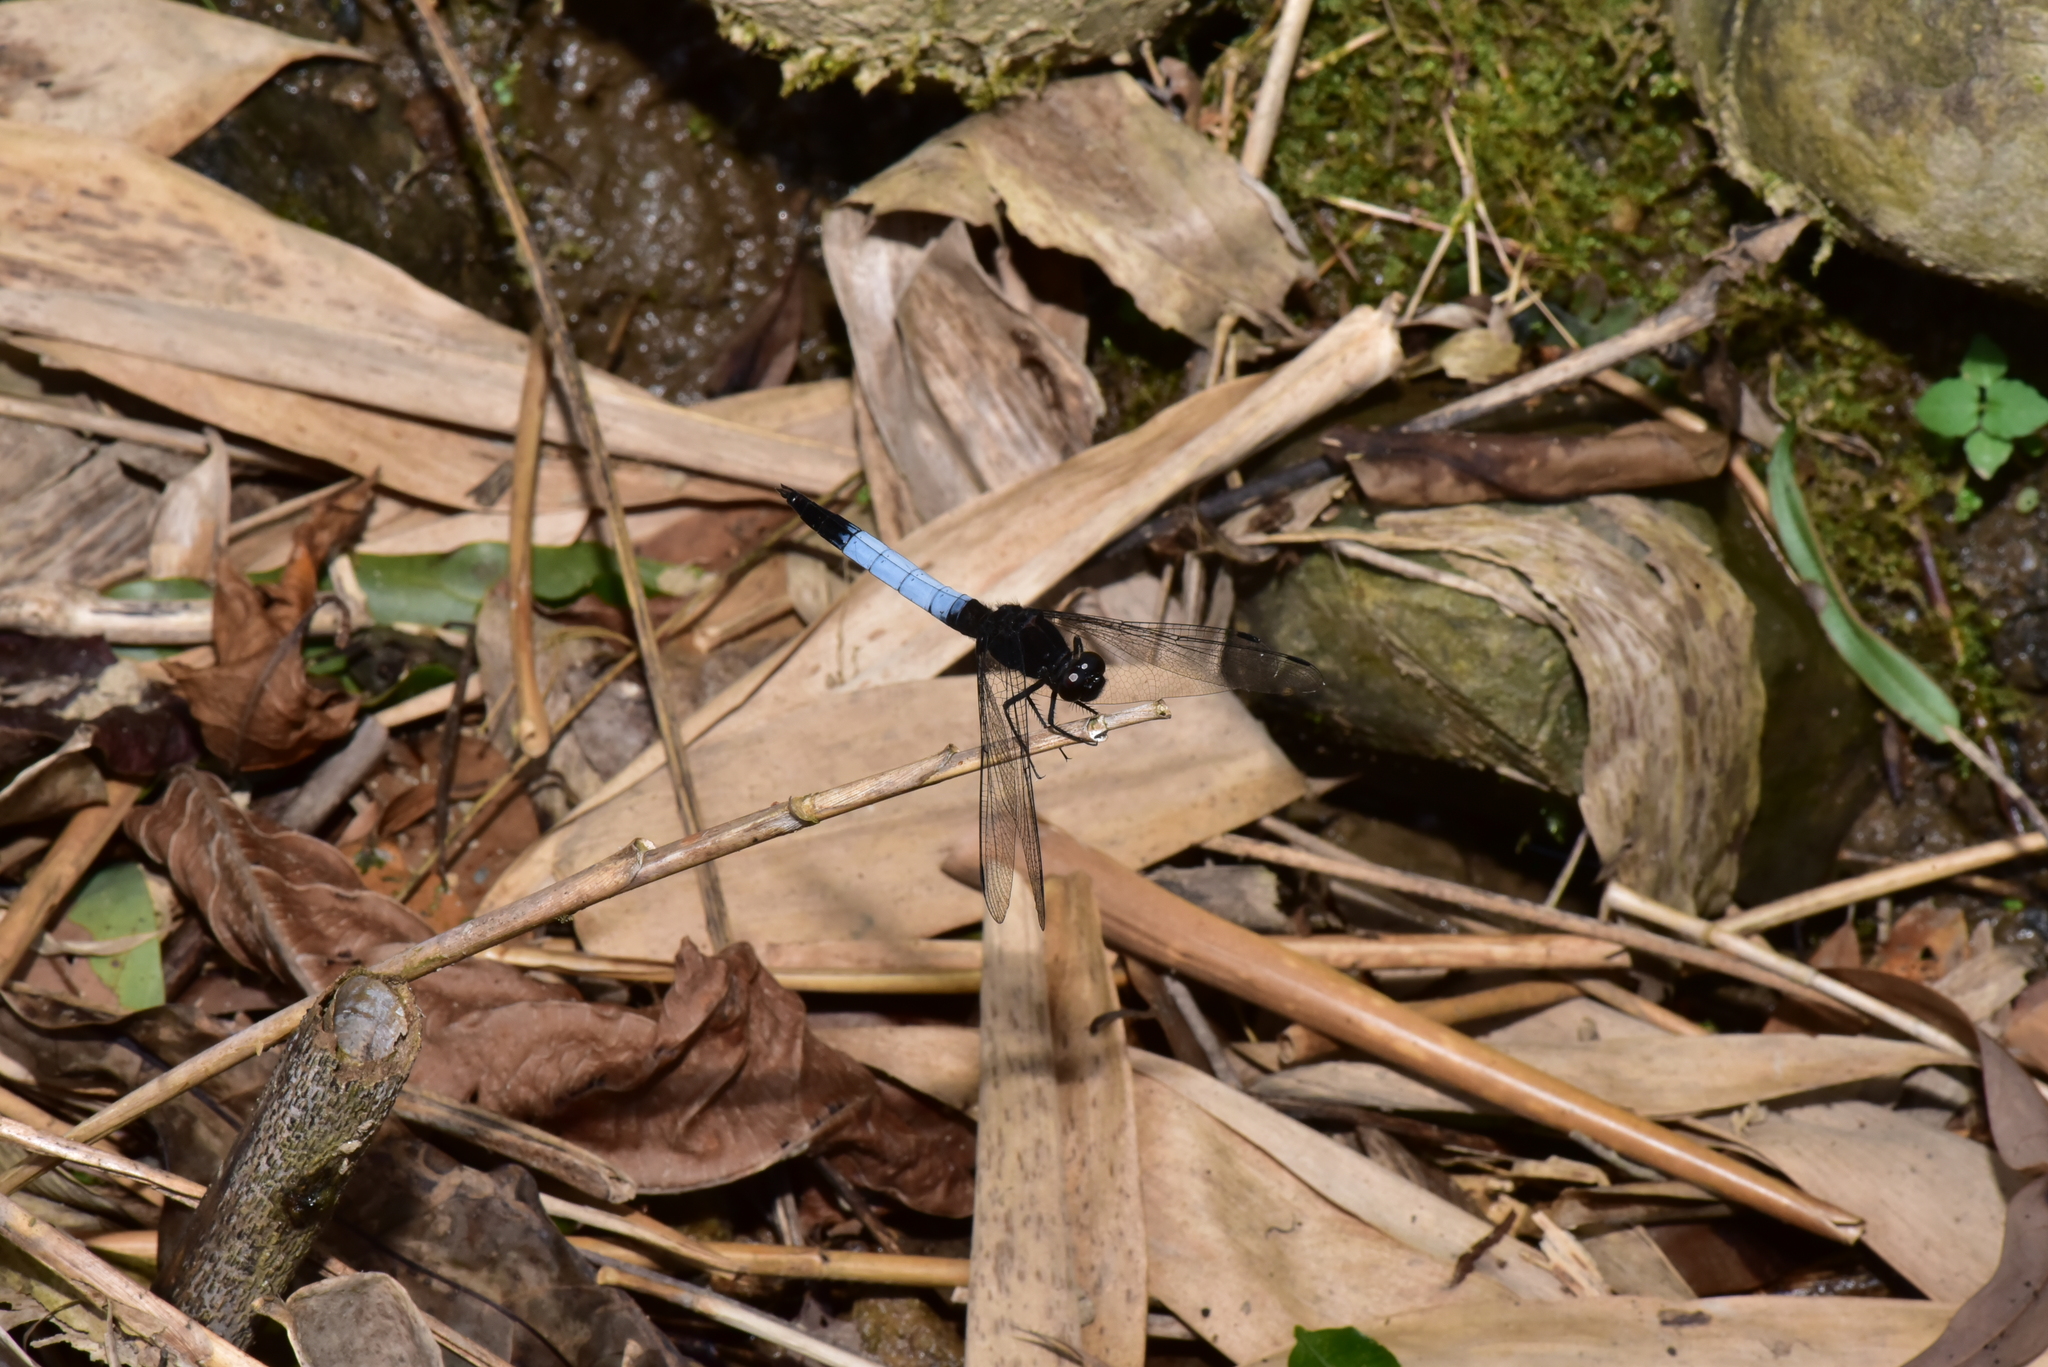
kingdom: Animalia
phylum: Arthropoda
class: Insecta
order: Odonata
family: Libellulidae
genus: Orthetrum
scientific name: Orthetrum triangulare
